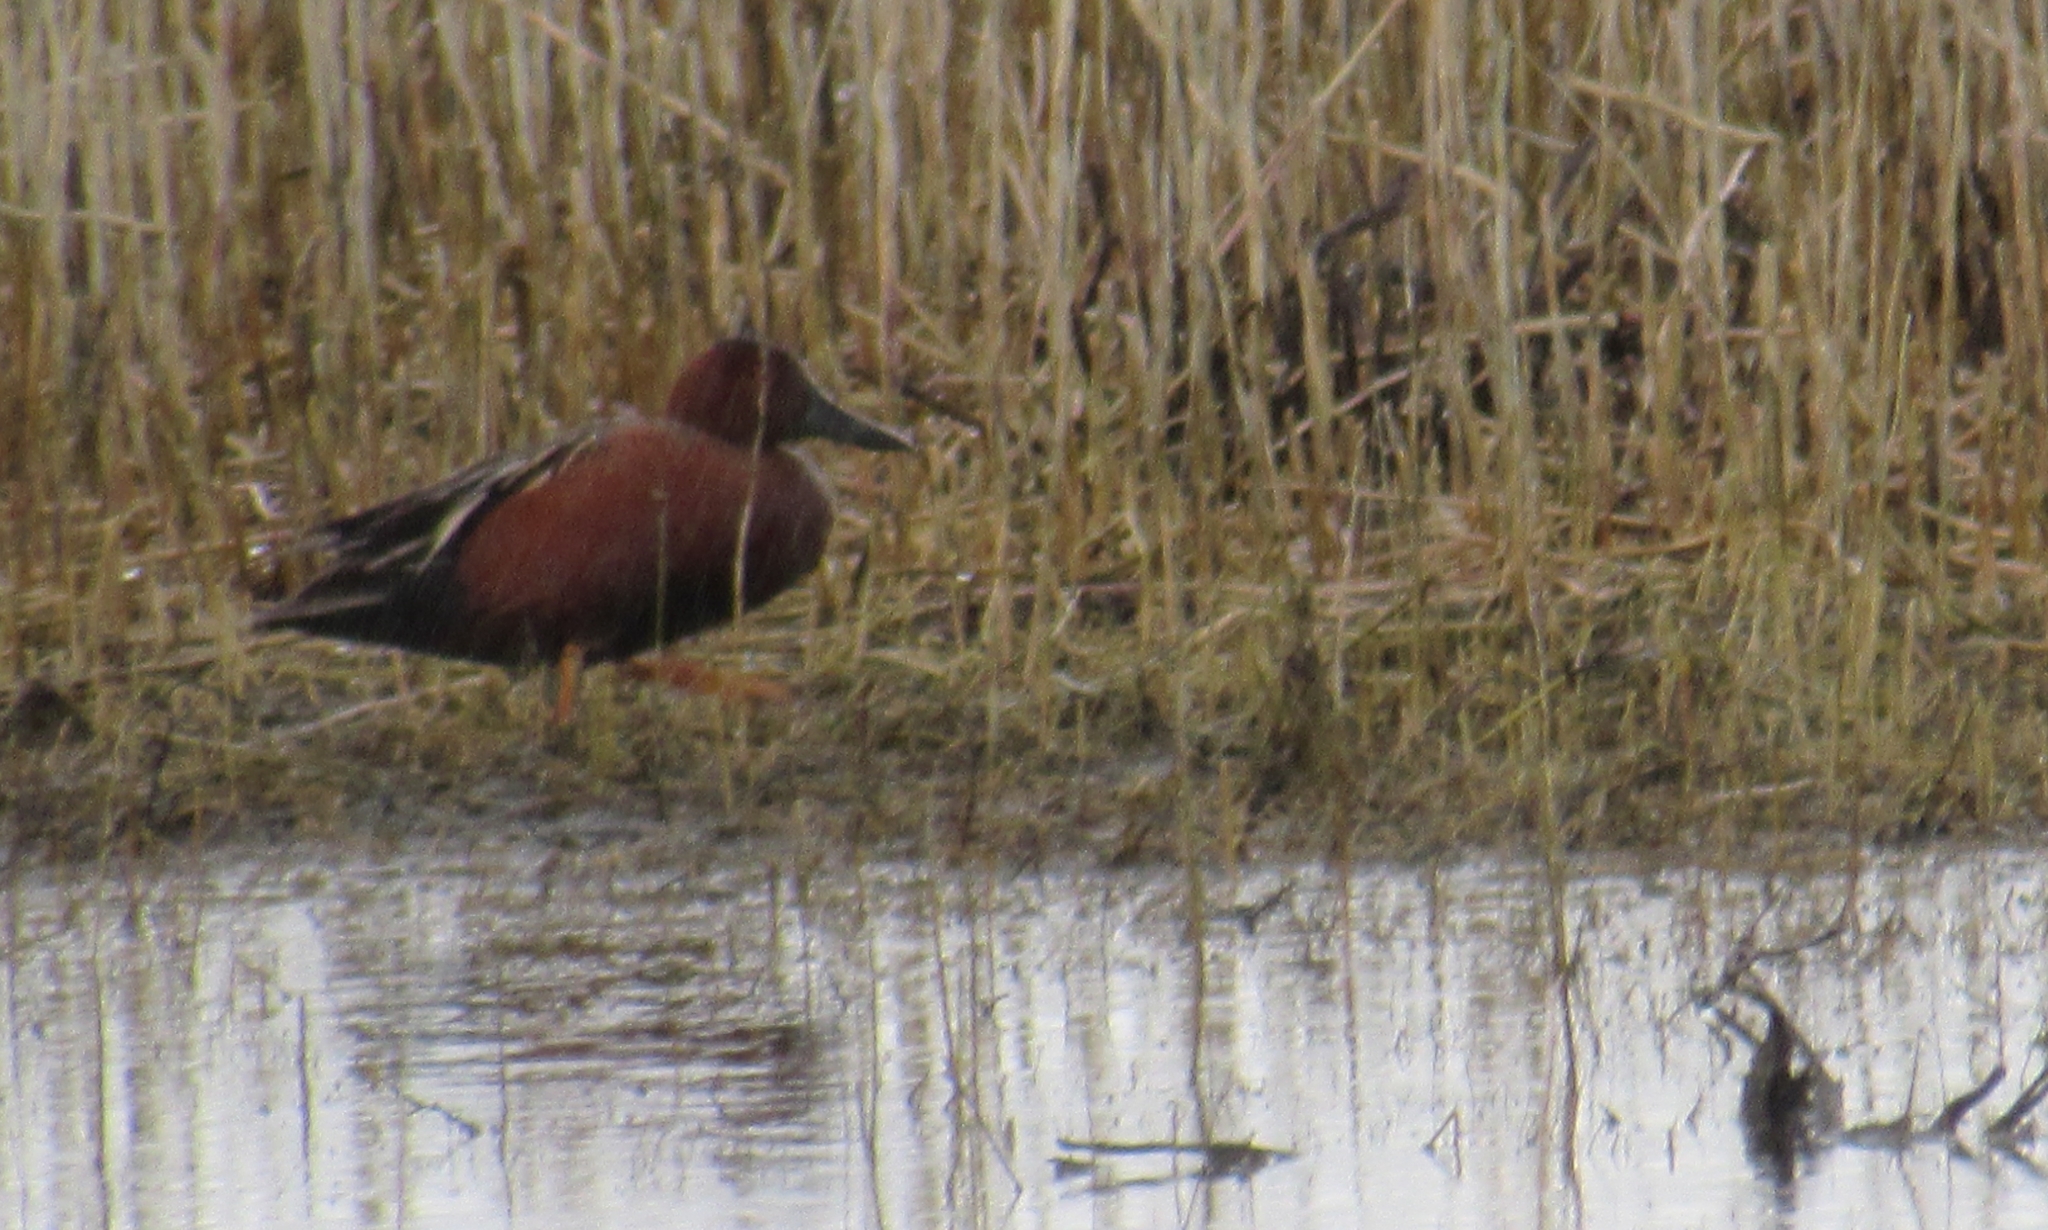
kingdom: Animalia
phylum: Chordata
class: Aves
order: Anseriformes
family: Anatidae
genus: Spatula
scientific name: Spatula cyanoptera
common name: Cinnamon teal
